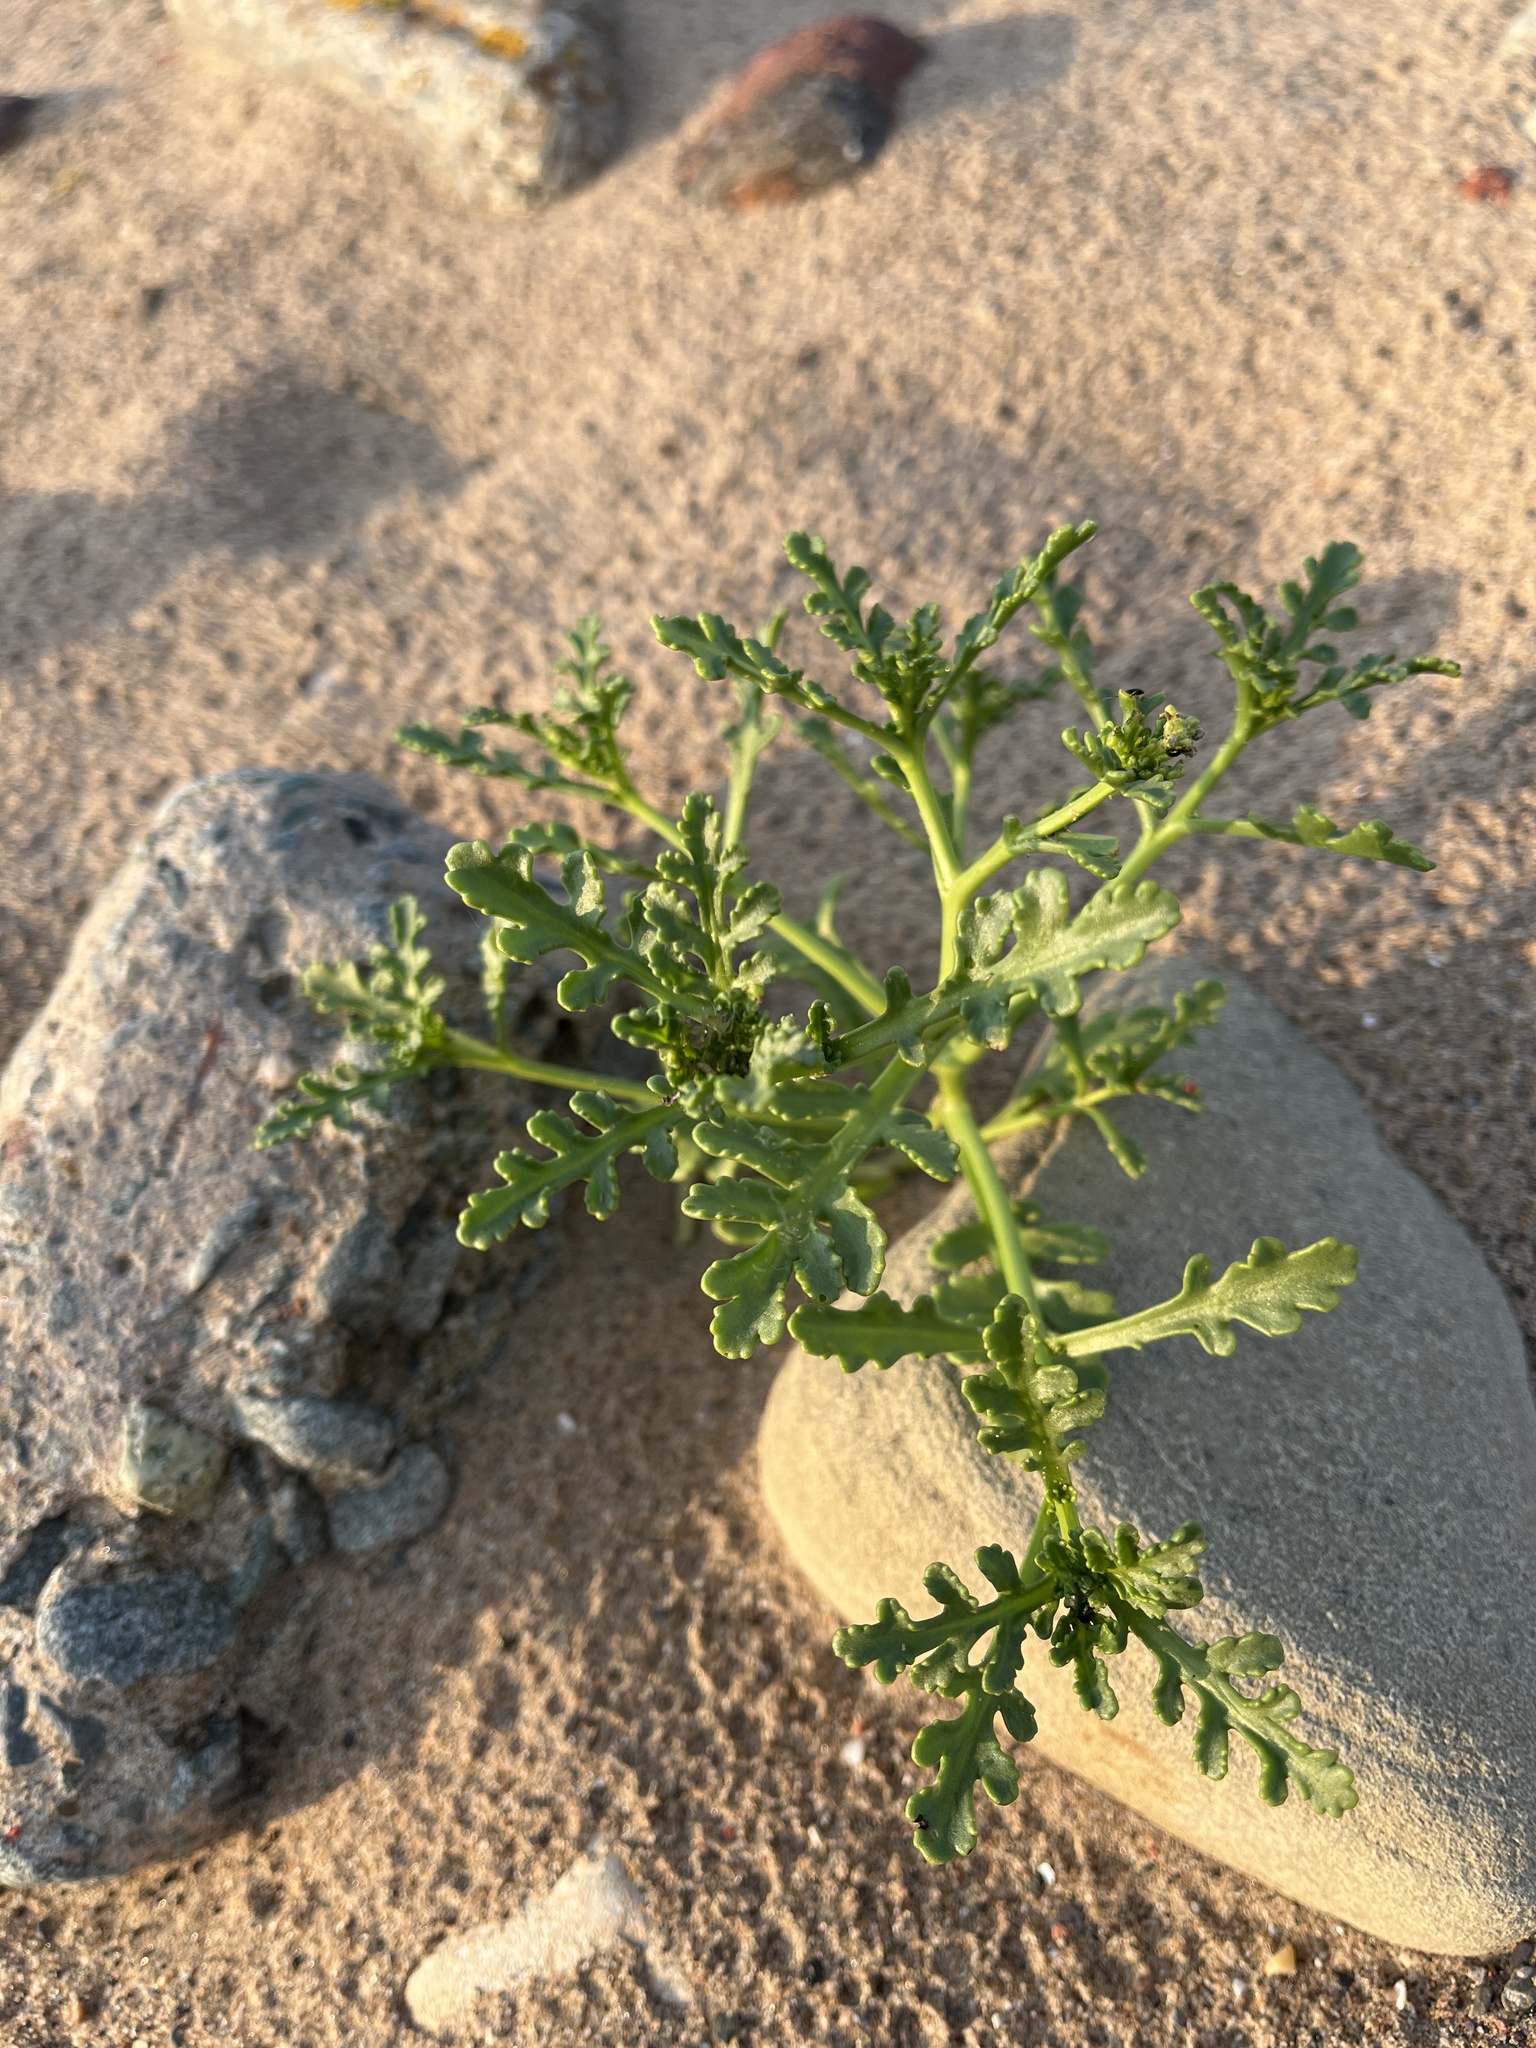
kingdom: Plantae
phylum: Tracheophyta
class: Magnoliopsida
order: Brassicales
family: Brassicaceae
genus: Cakile
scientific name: Cakile maritima
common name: Sea rocket
